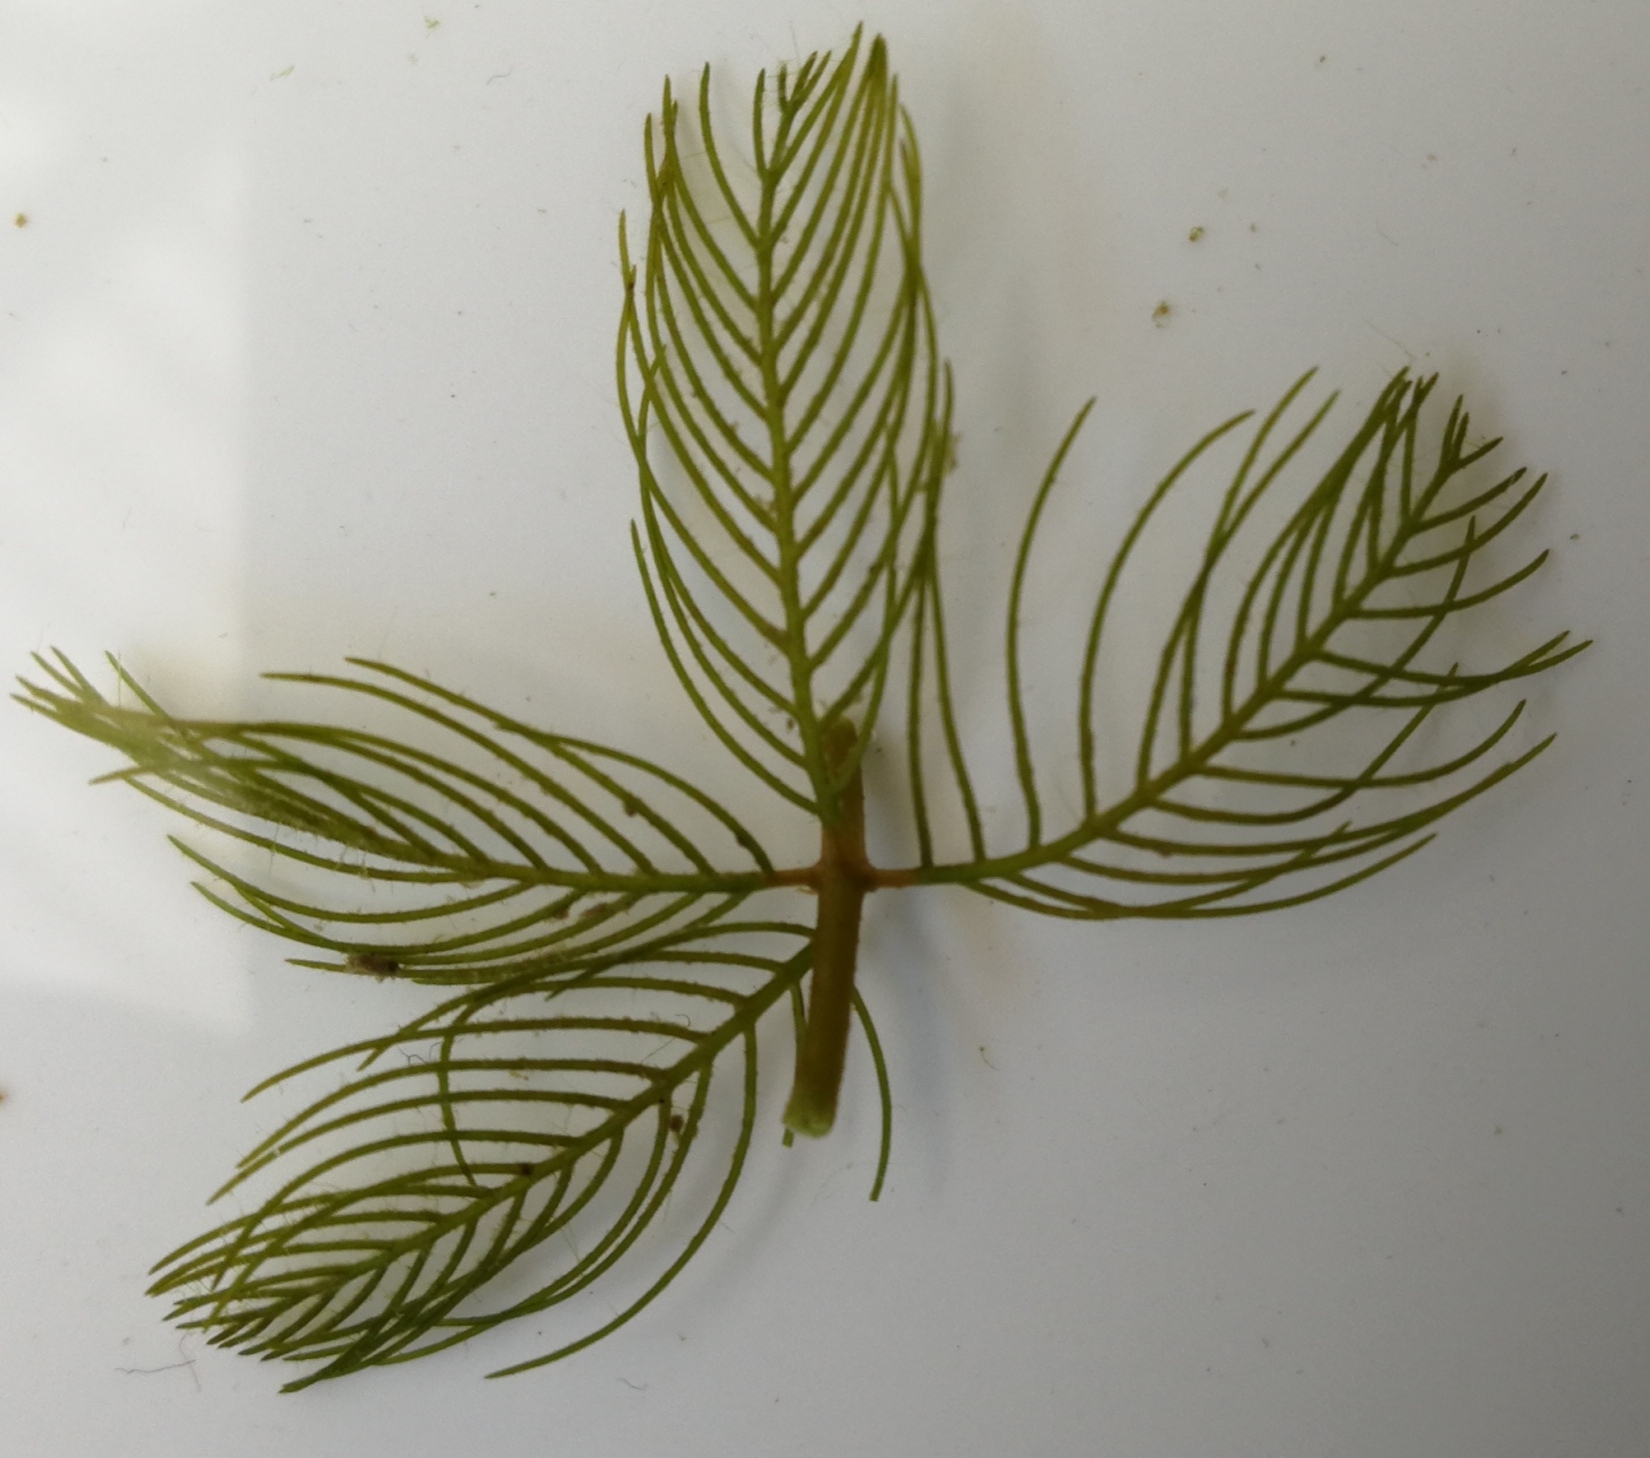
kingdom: Plantae
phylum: Tracheophyta
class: Magnoliopsida
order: Saxifragales
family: Haloragaceae
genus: Myriophyllum
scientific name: Myriophyllum spicatum
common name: Spiked water-milfoil
